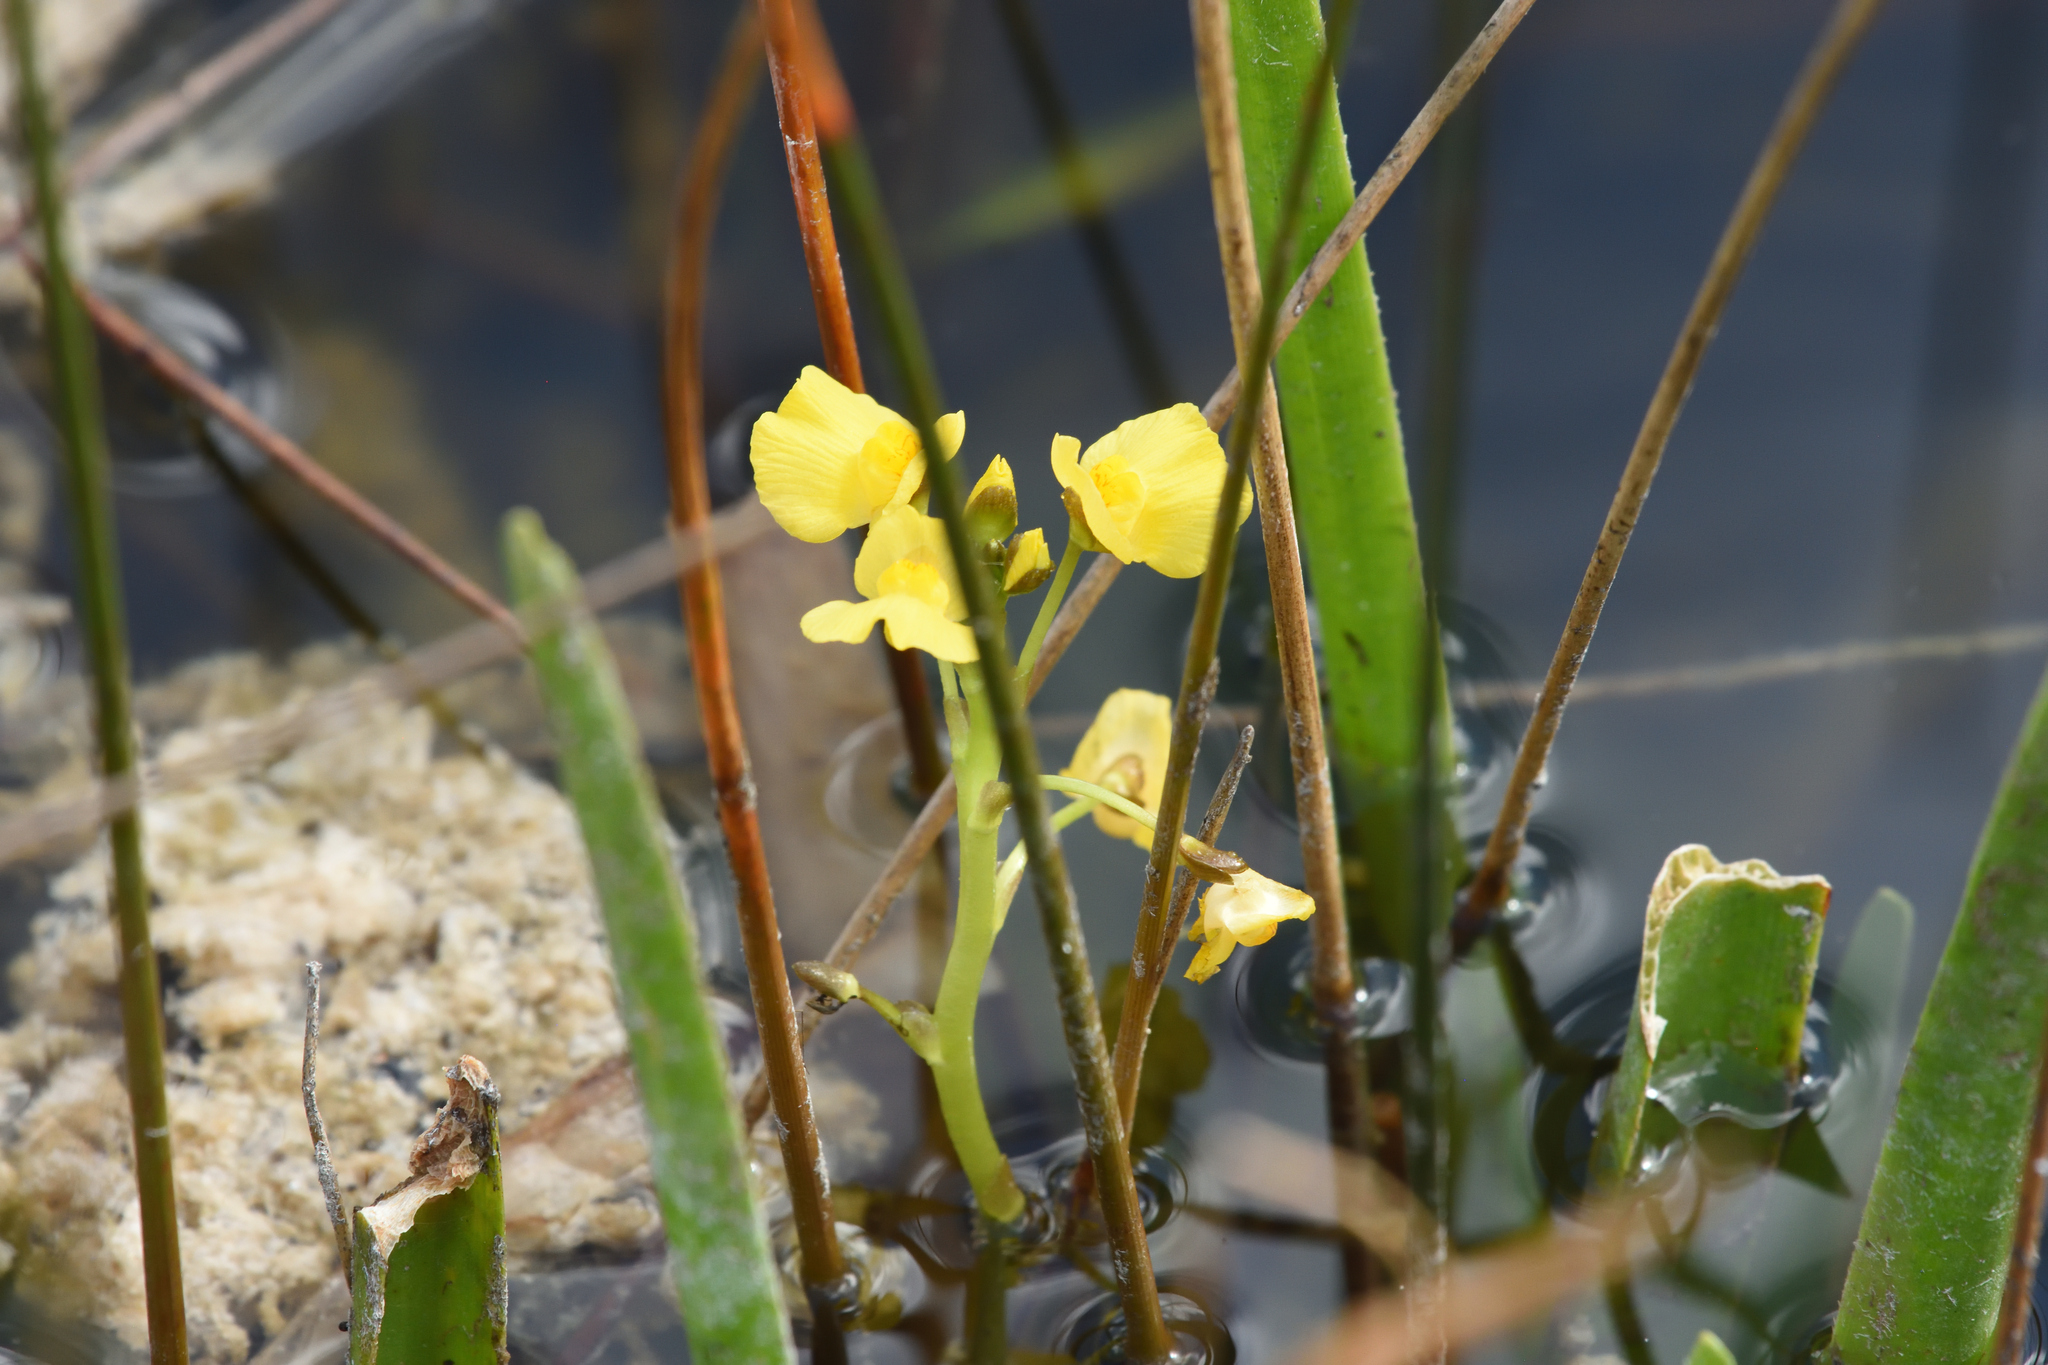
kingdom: Plantae
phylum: Tracheophyta
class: Magnoliopsida
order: Lamiales
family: Lentibulariaceae
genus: Utricularia
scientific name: Utricularia foliosa
